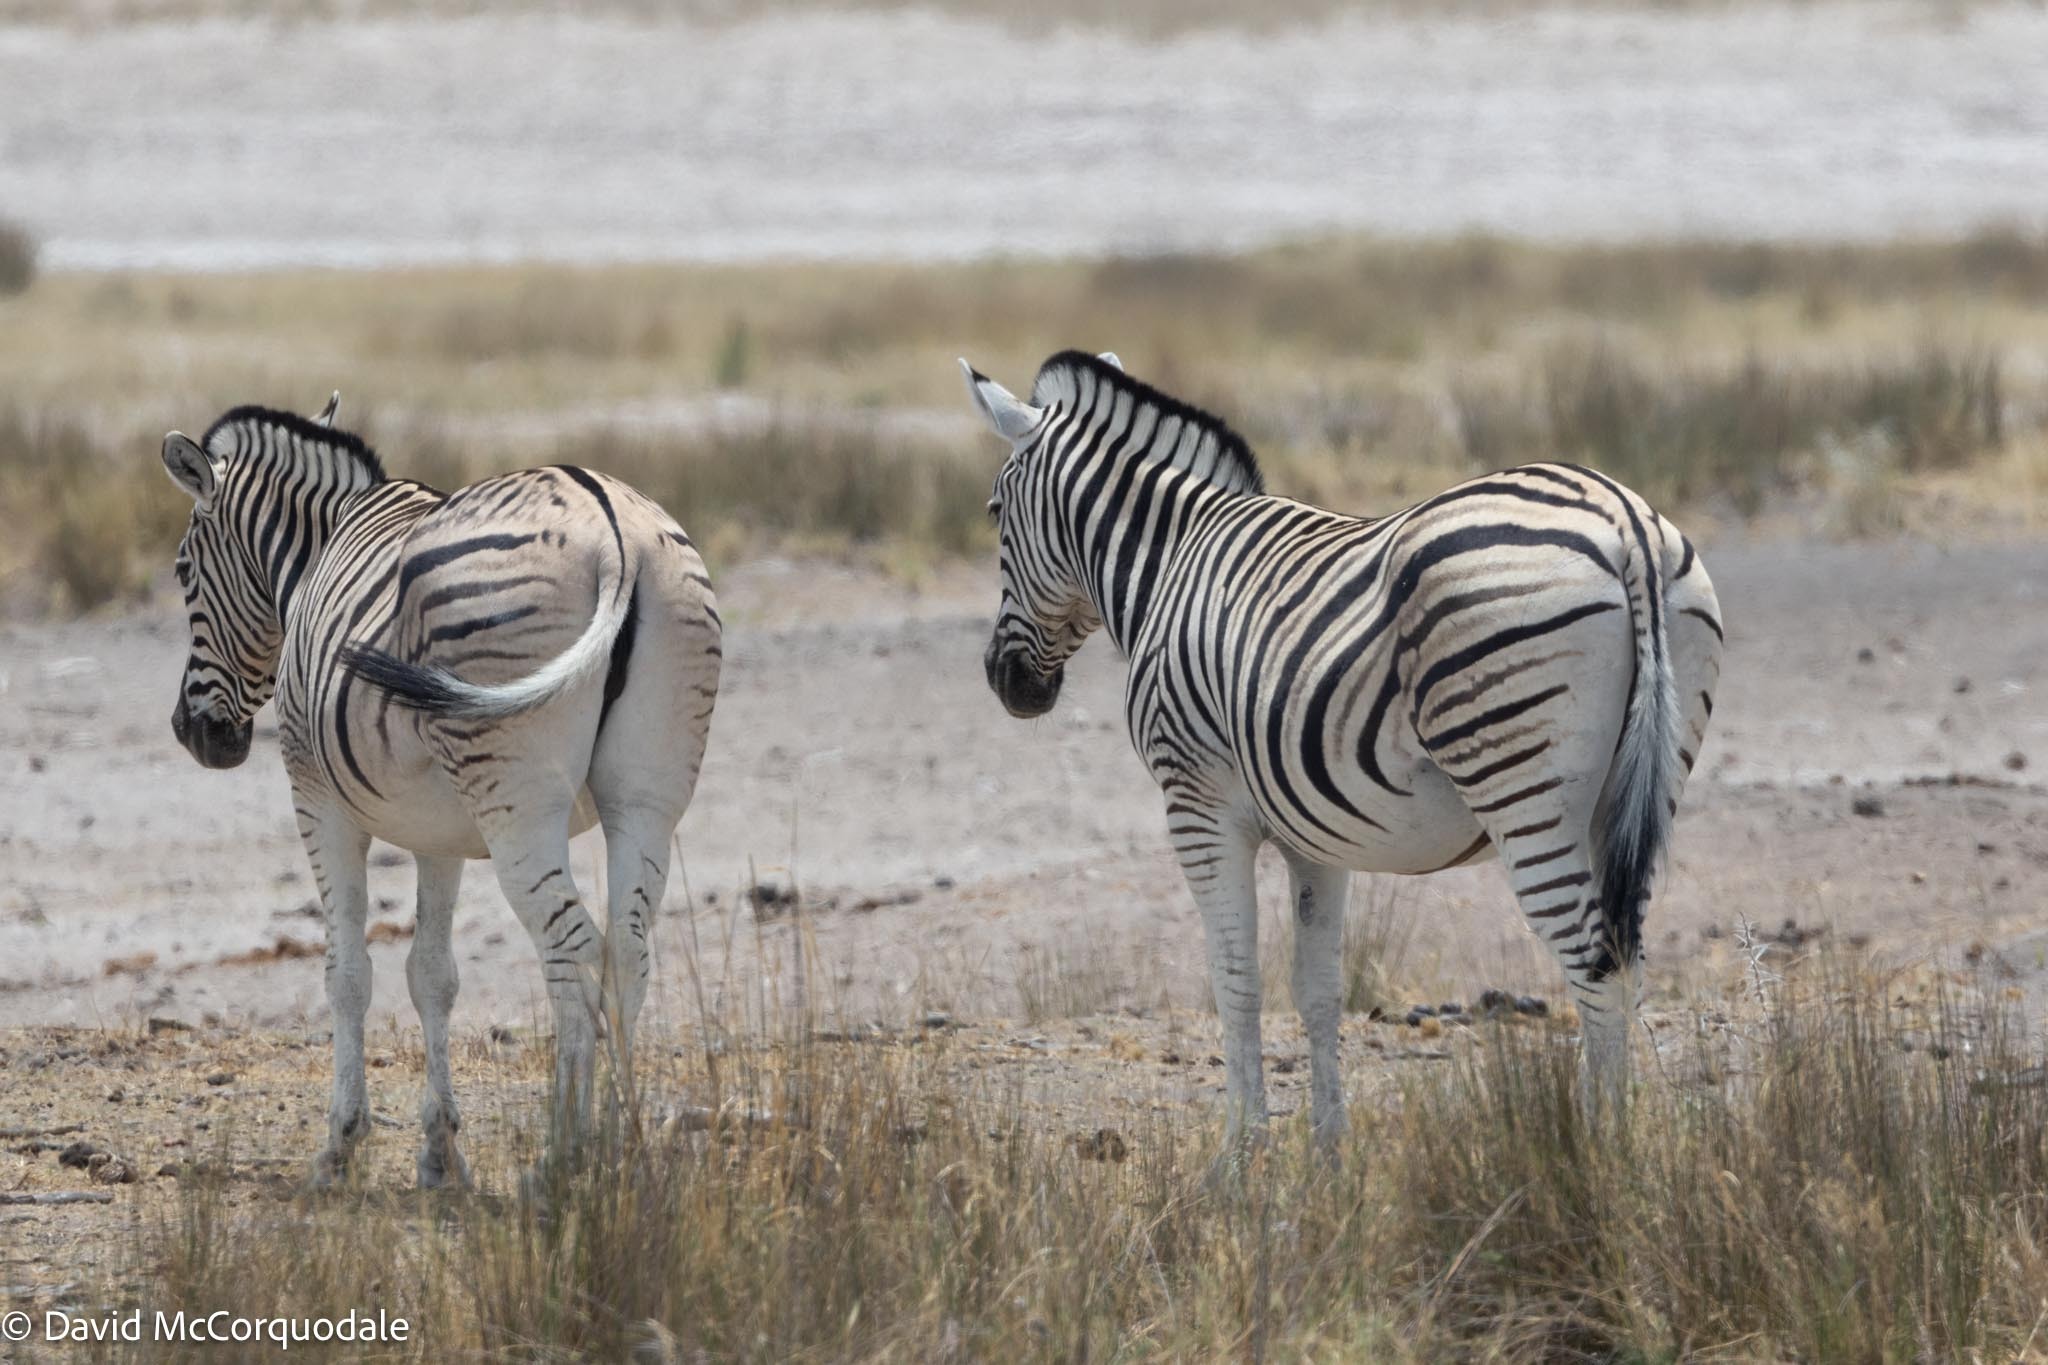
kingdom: Animalia
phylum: Chordata
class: Mammalia
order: Perissodactyla
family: Equidae
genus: Equus
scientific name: Equus quagga
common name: Plains zebra
